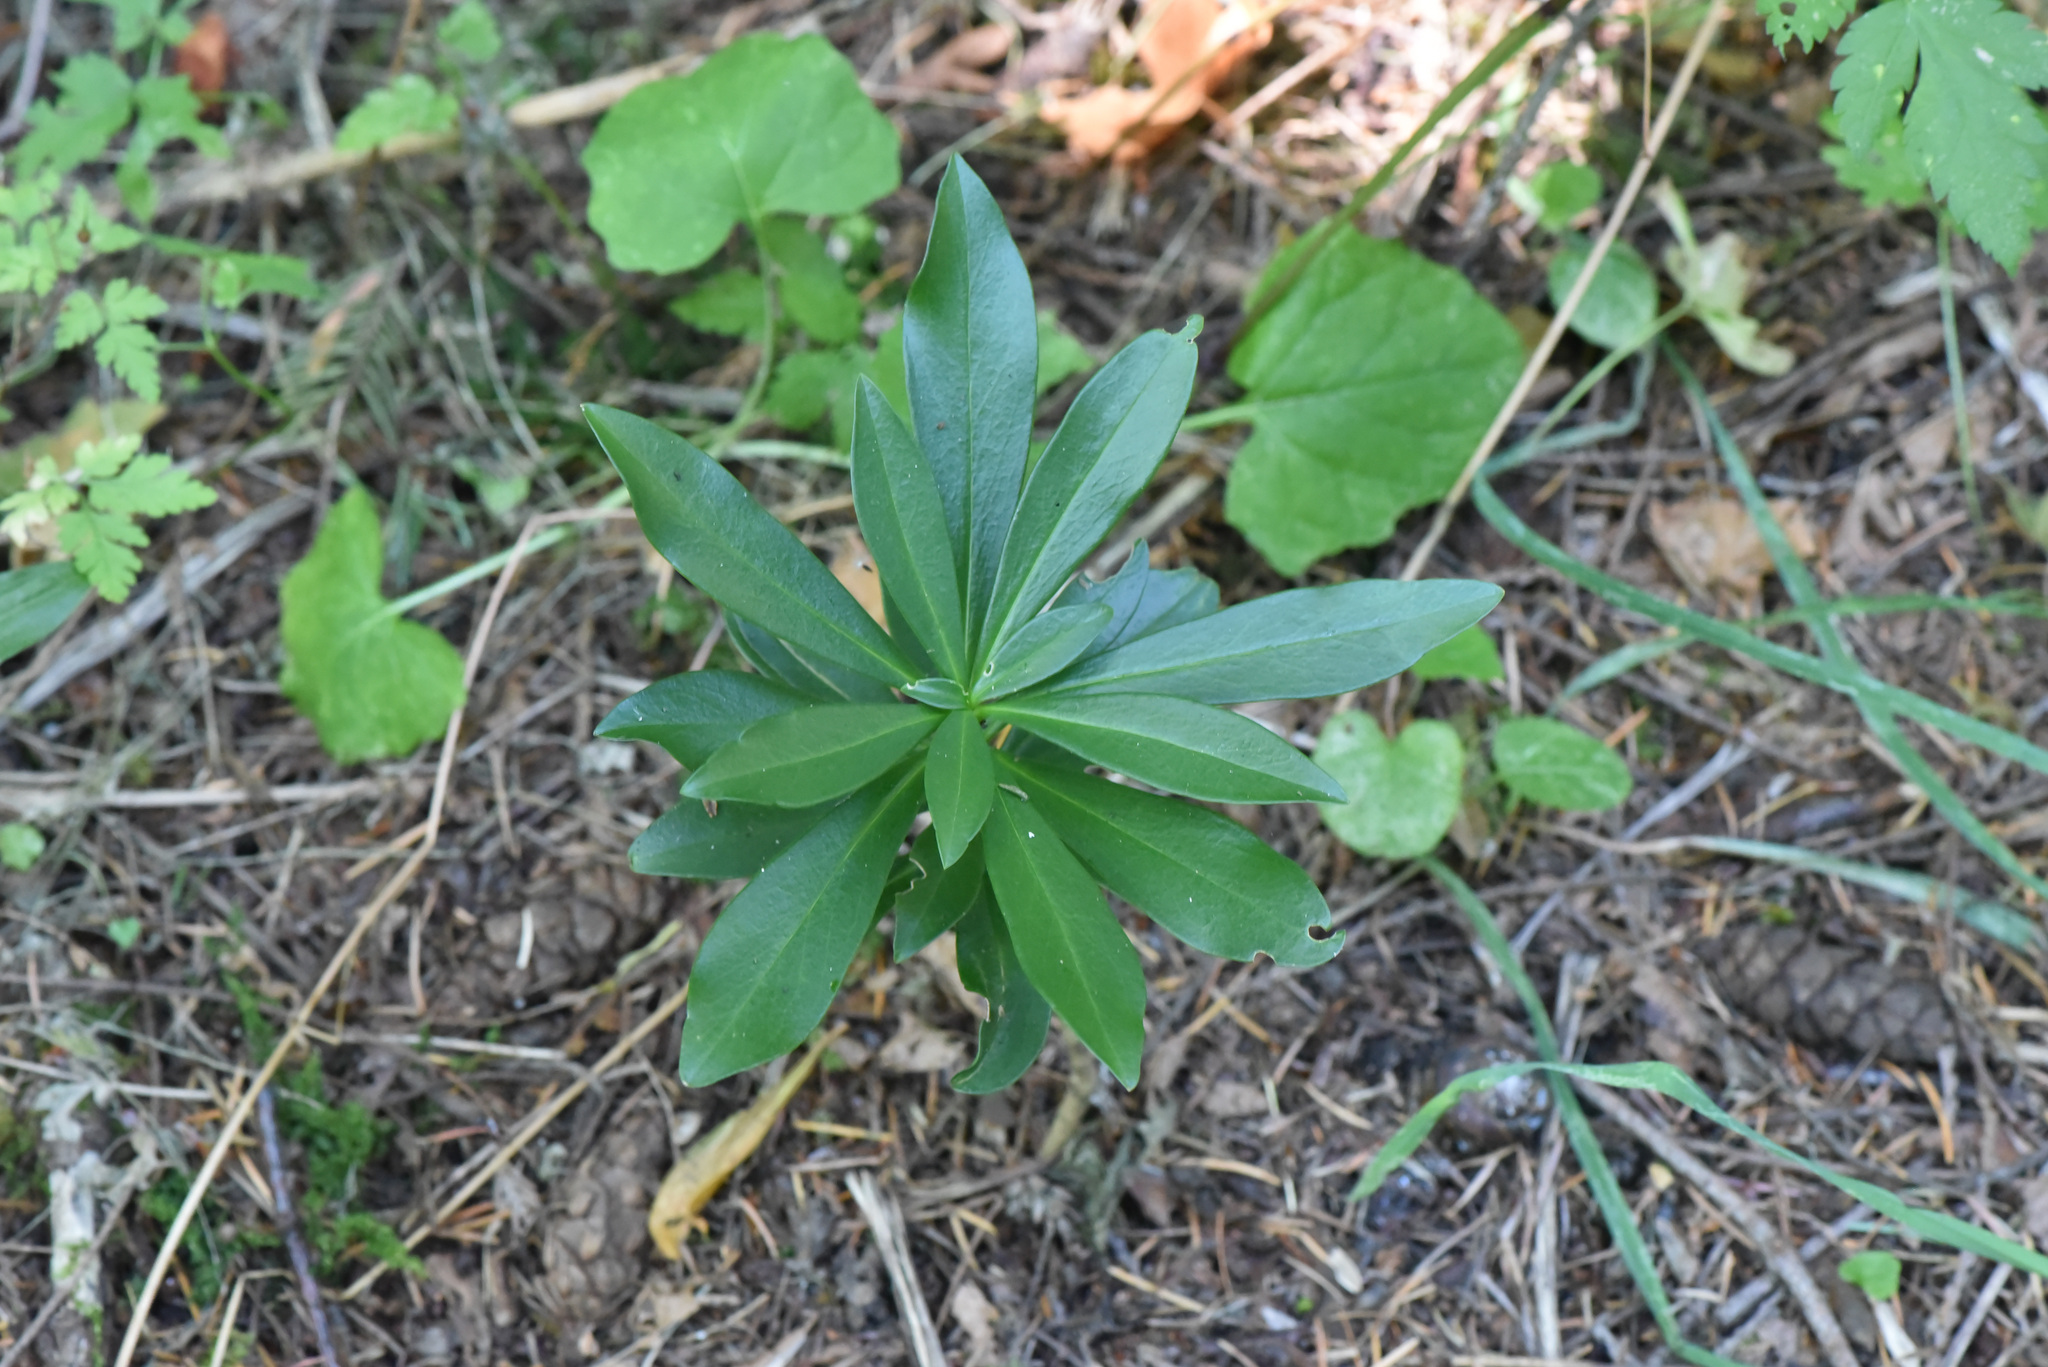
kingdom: Plantae
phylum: Tracheophyta
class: Magnoliopsida
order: Malvales
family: Thymelaeaceae
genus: Daphne
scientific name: Daphne laureola
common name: Spurge-laurel
